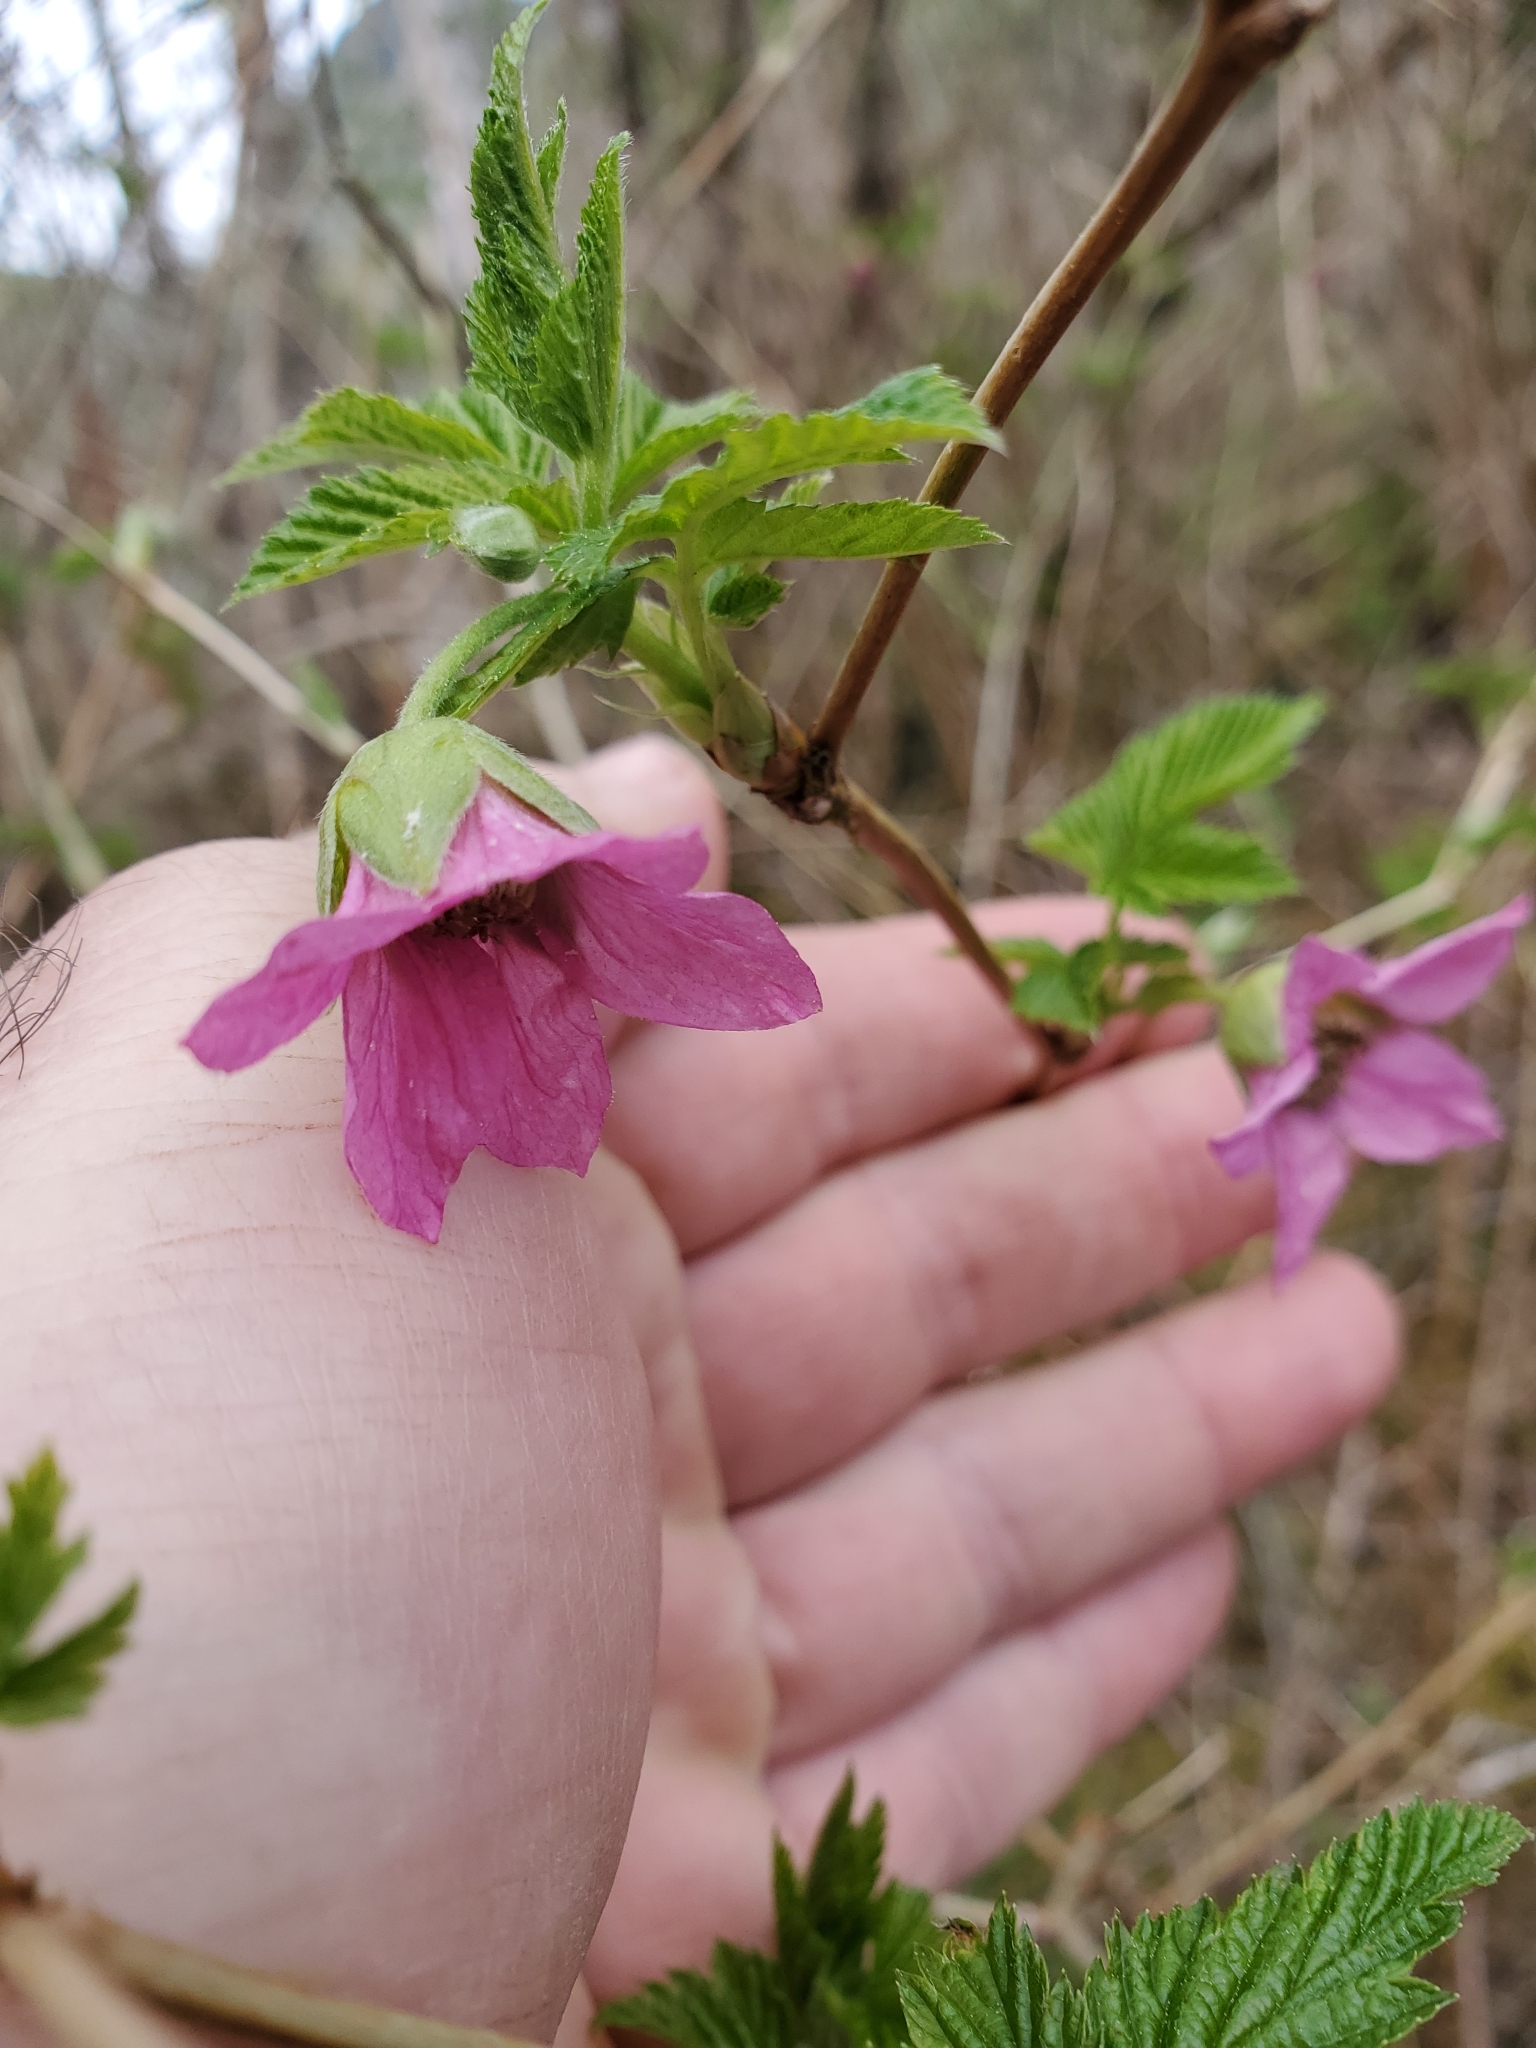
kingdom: Plantae
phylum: Tracheophyta
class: Magnoliopsida
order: Rosales
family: Rosaceae
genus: Rubus
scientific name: Rubus spectabilis
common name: Salmonberry
